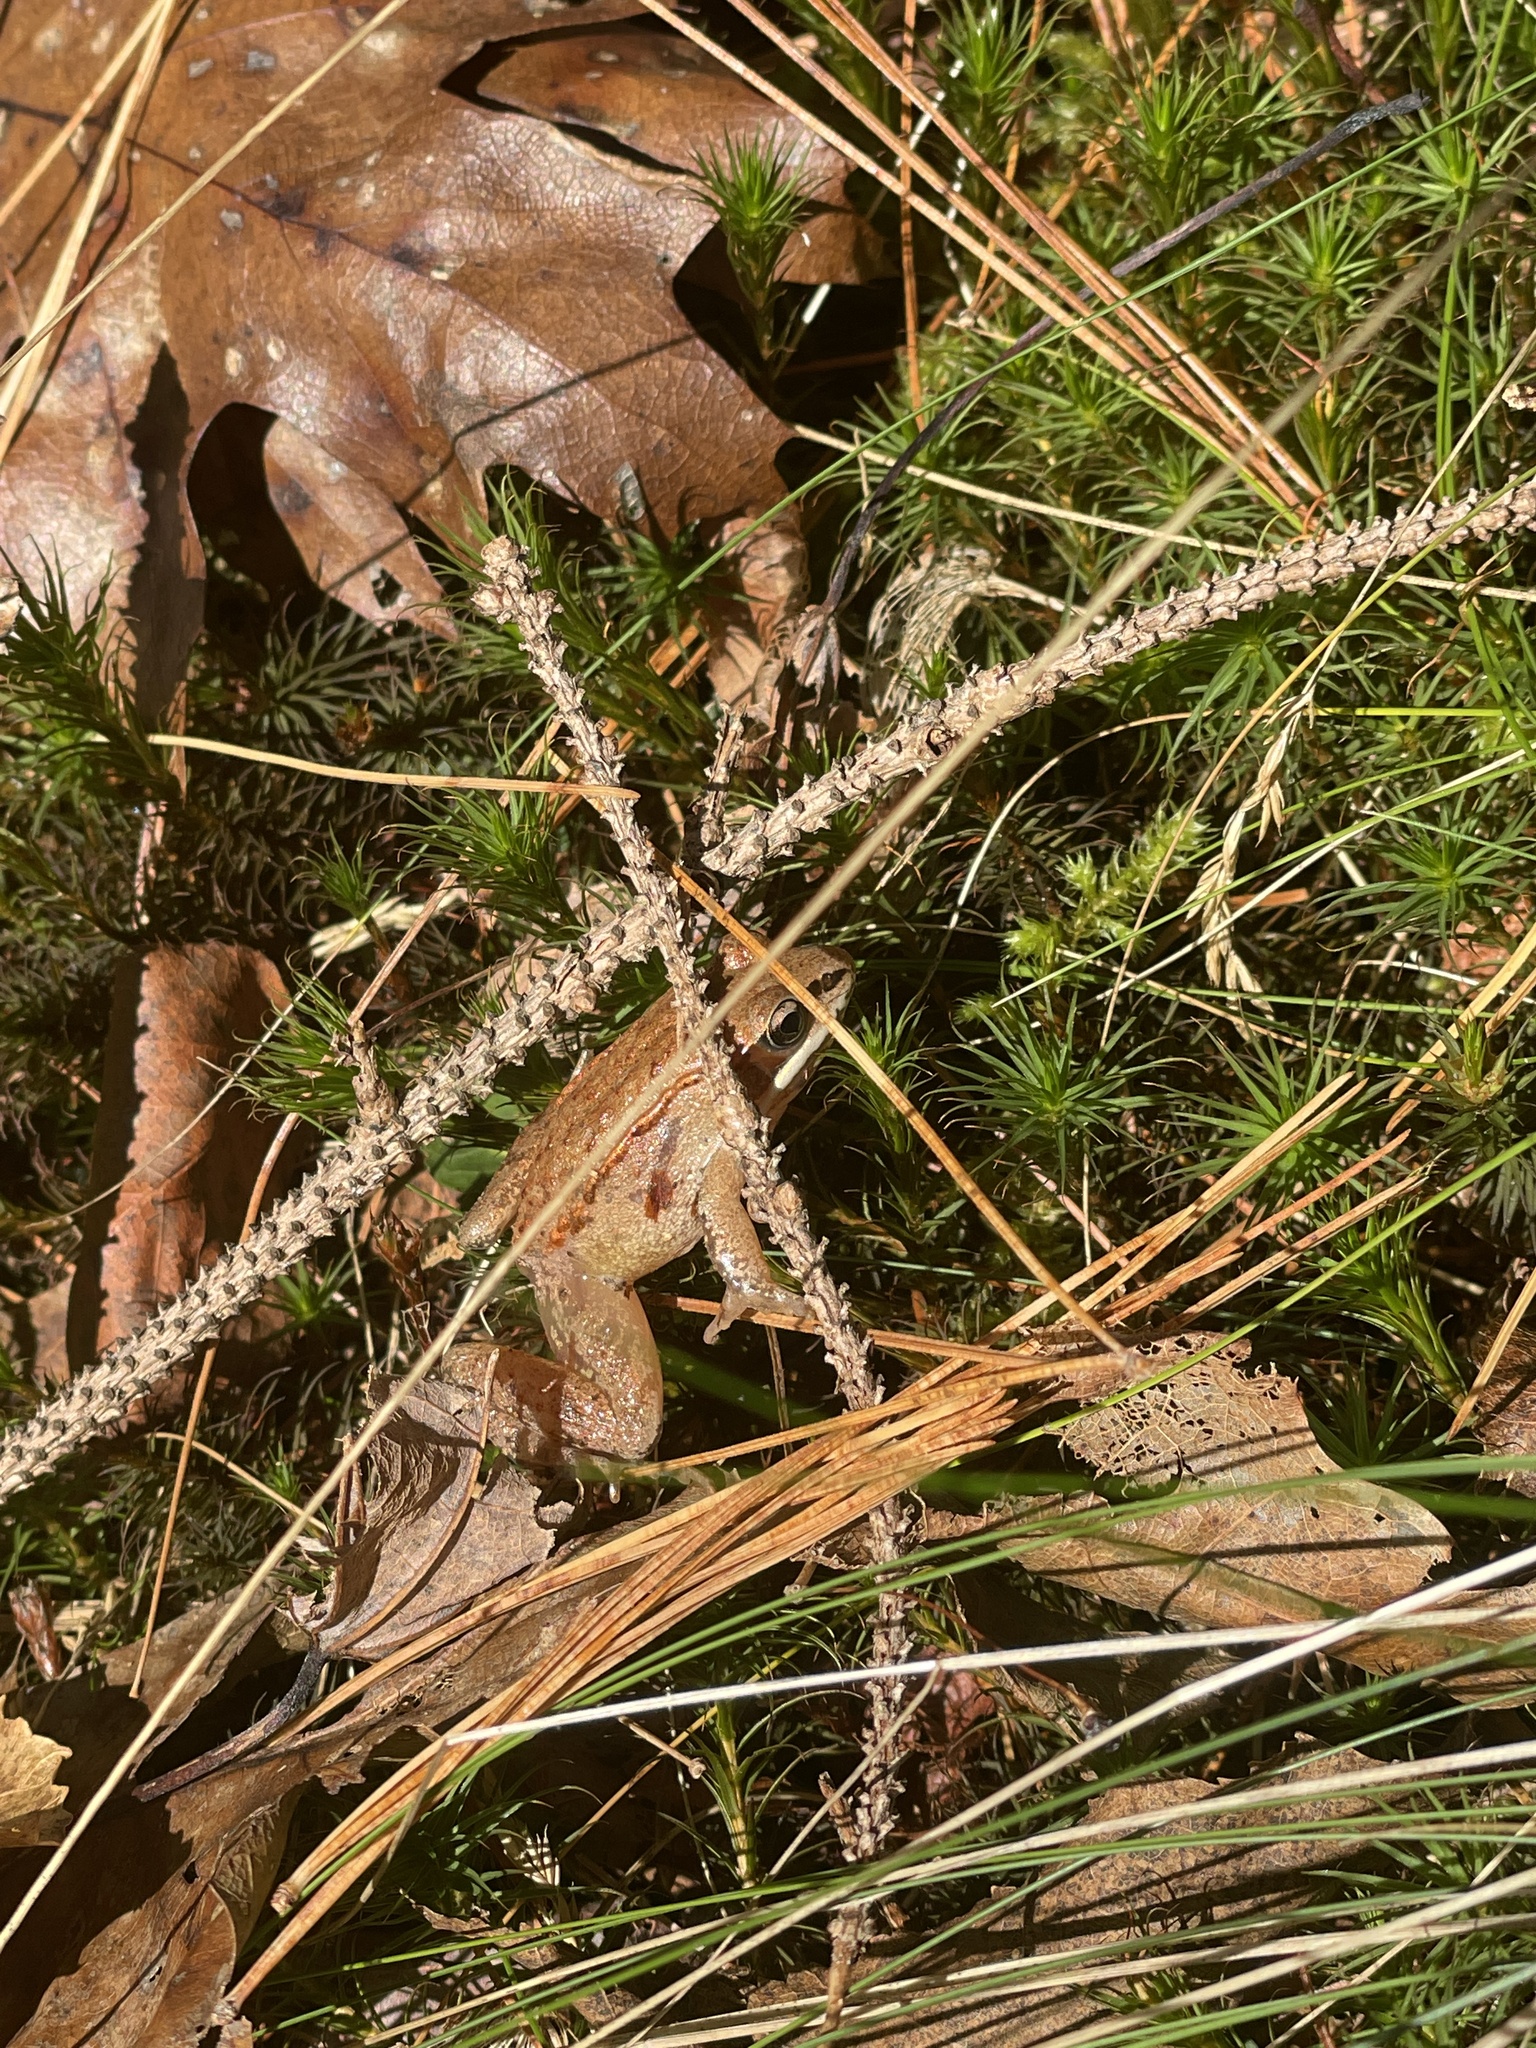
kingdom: Animalia
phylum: Chordata
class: Amphibia
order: Anura
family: Ranidae
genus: Lithobates
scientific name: Lithobates sylvaticus
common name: Wood frog
